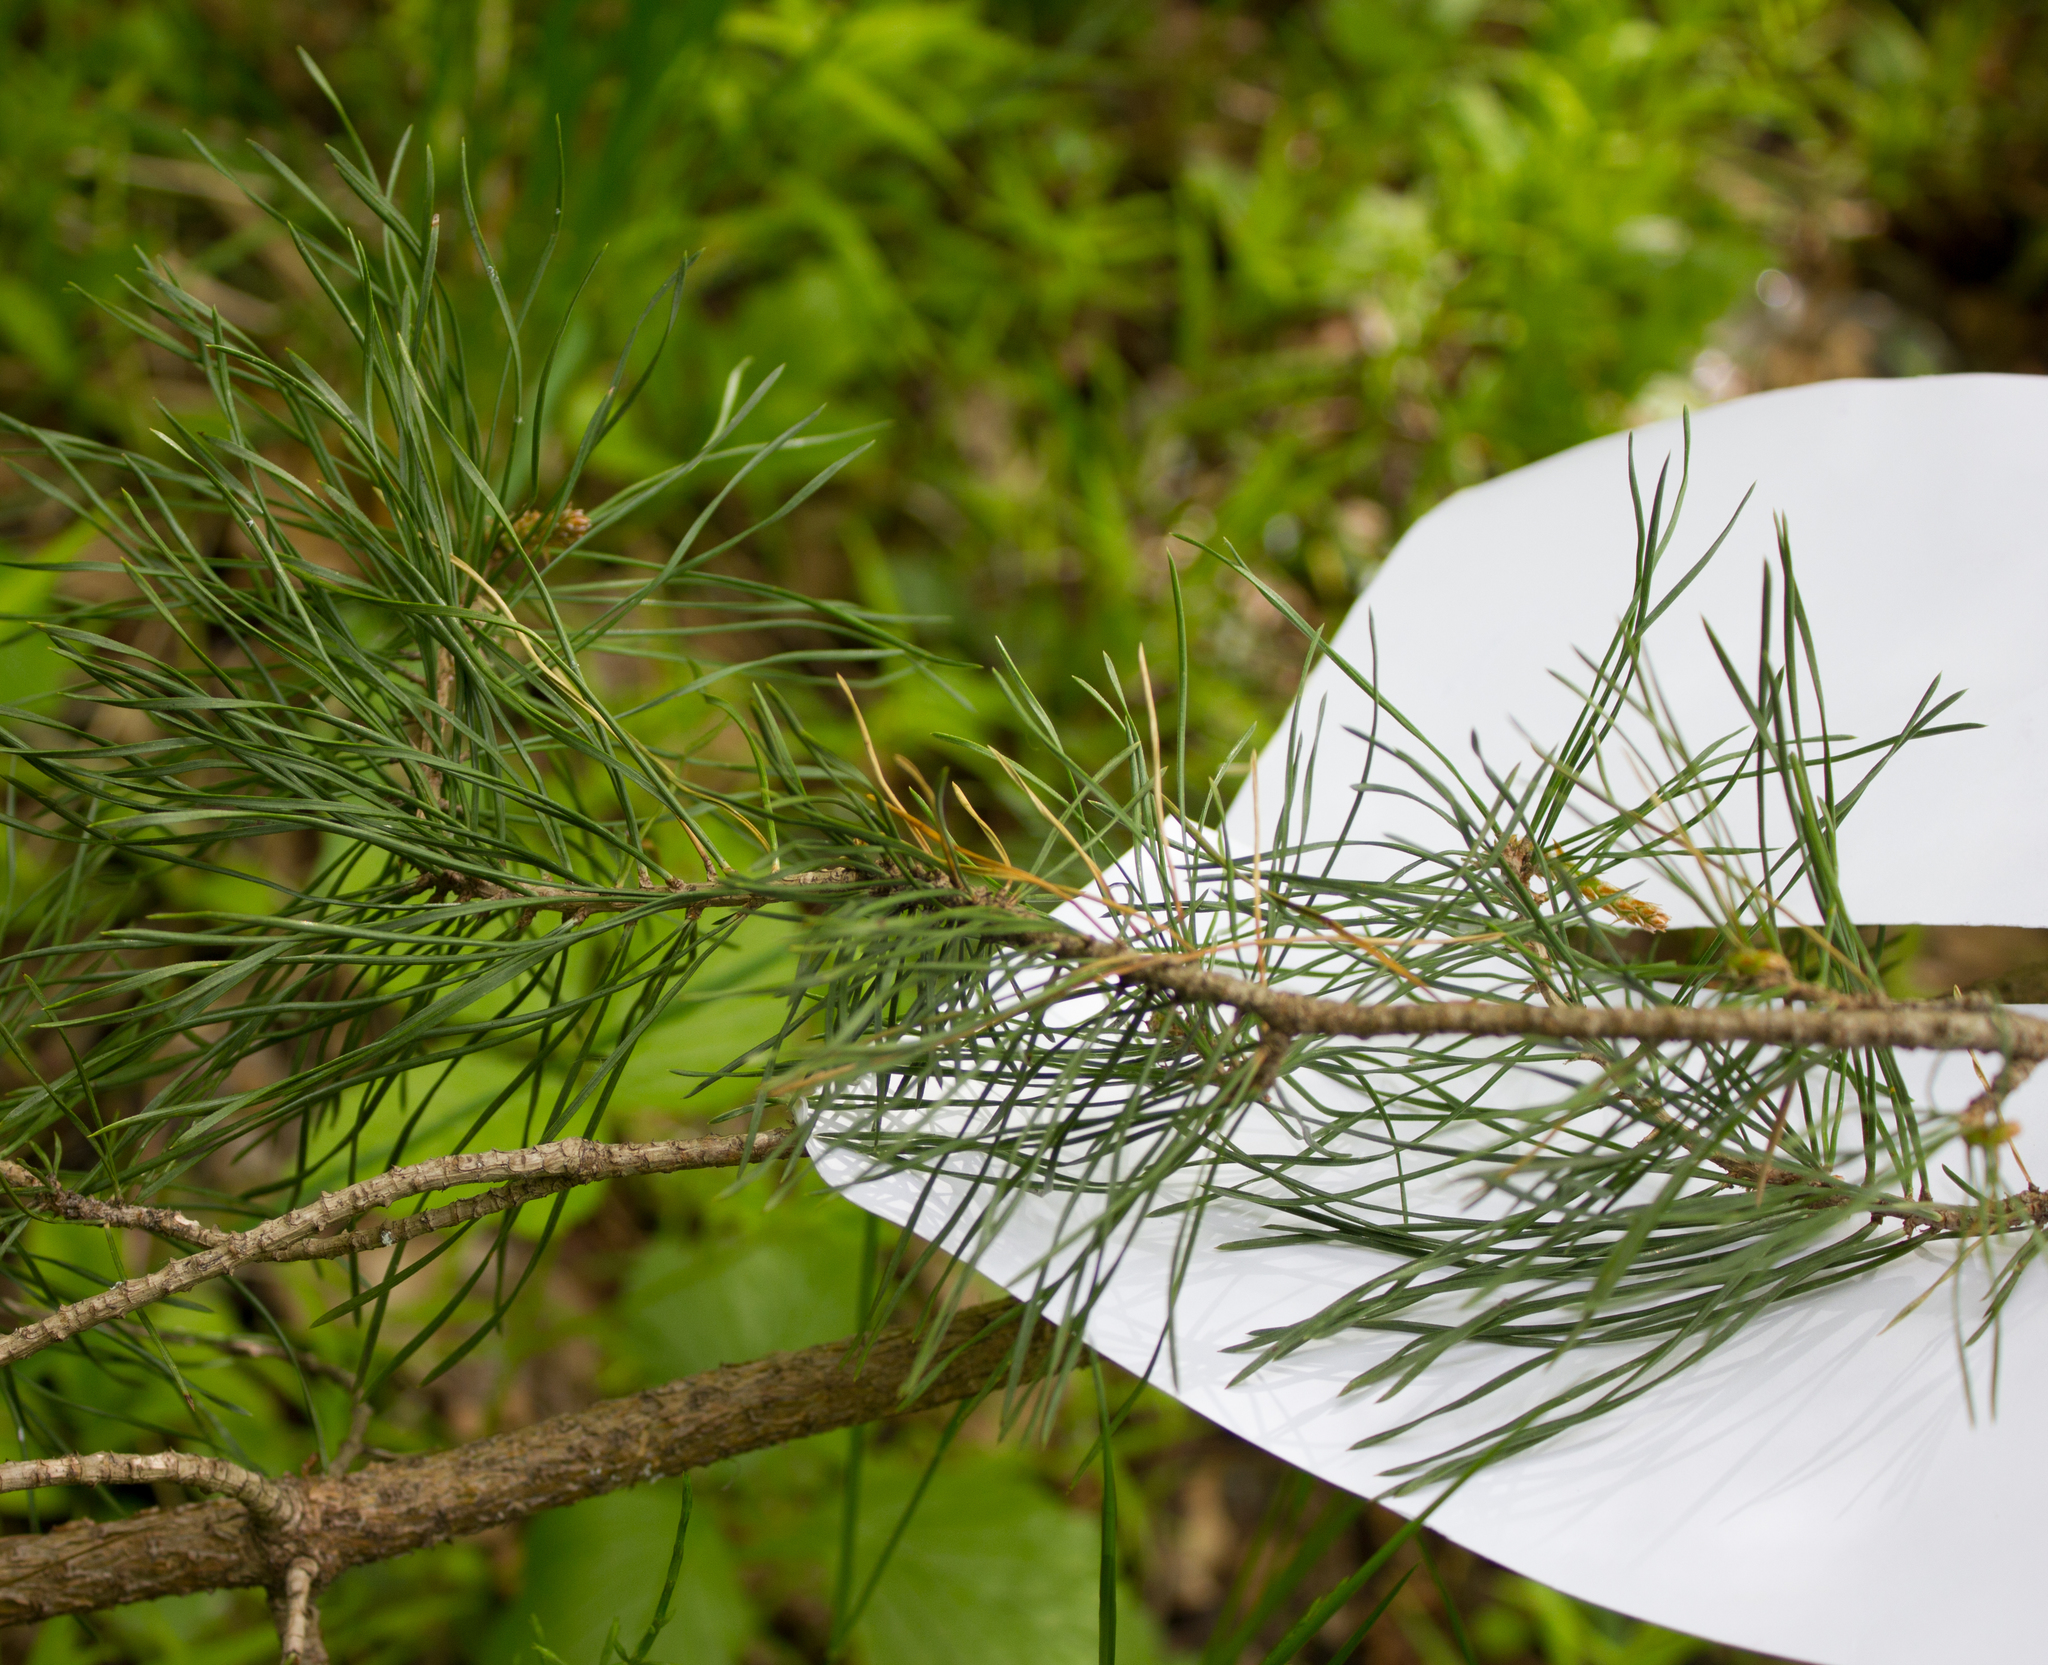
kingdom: Plantae
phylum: Tracheophyta
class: Pinopsida
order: Pinales
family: Pinaceae
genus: Pinus
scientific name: Pinus sylvestris
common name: Scots pine
